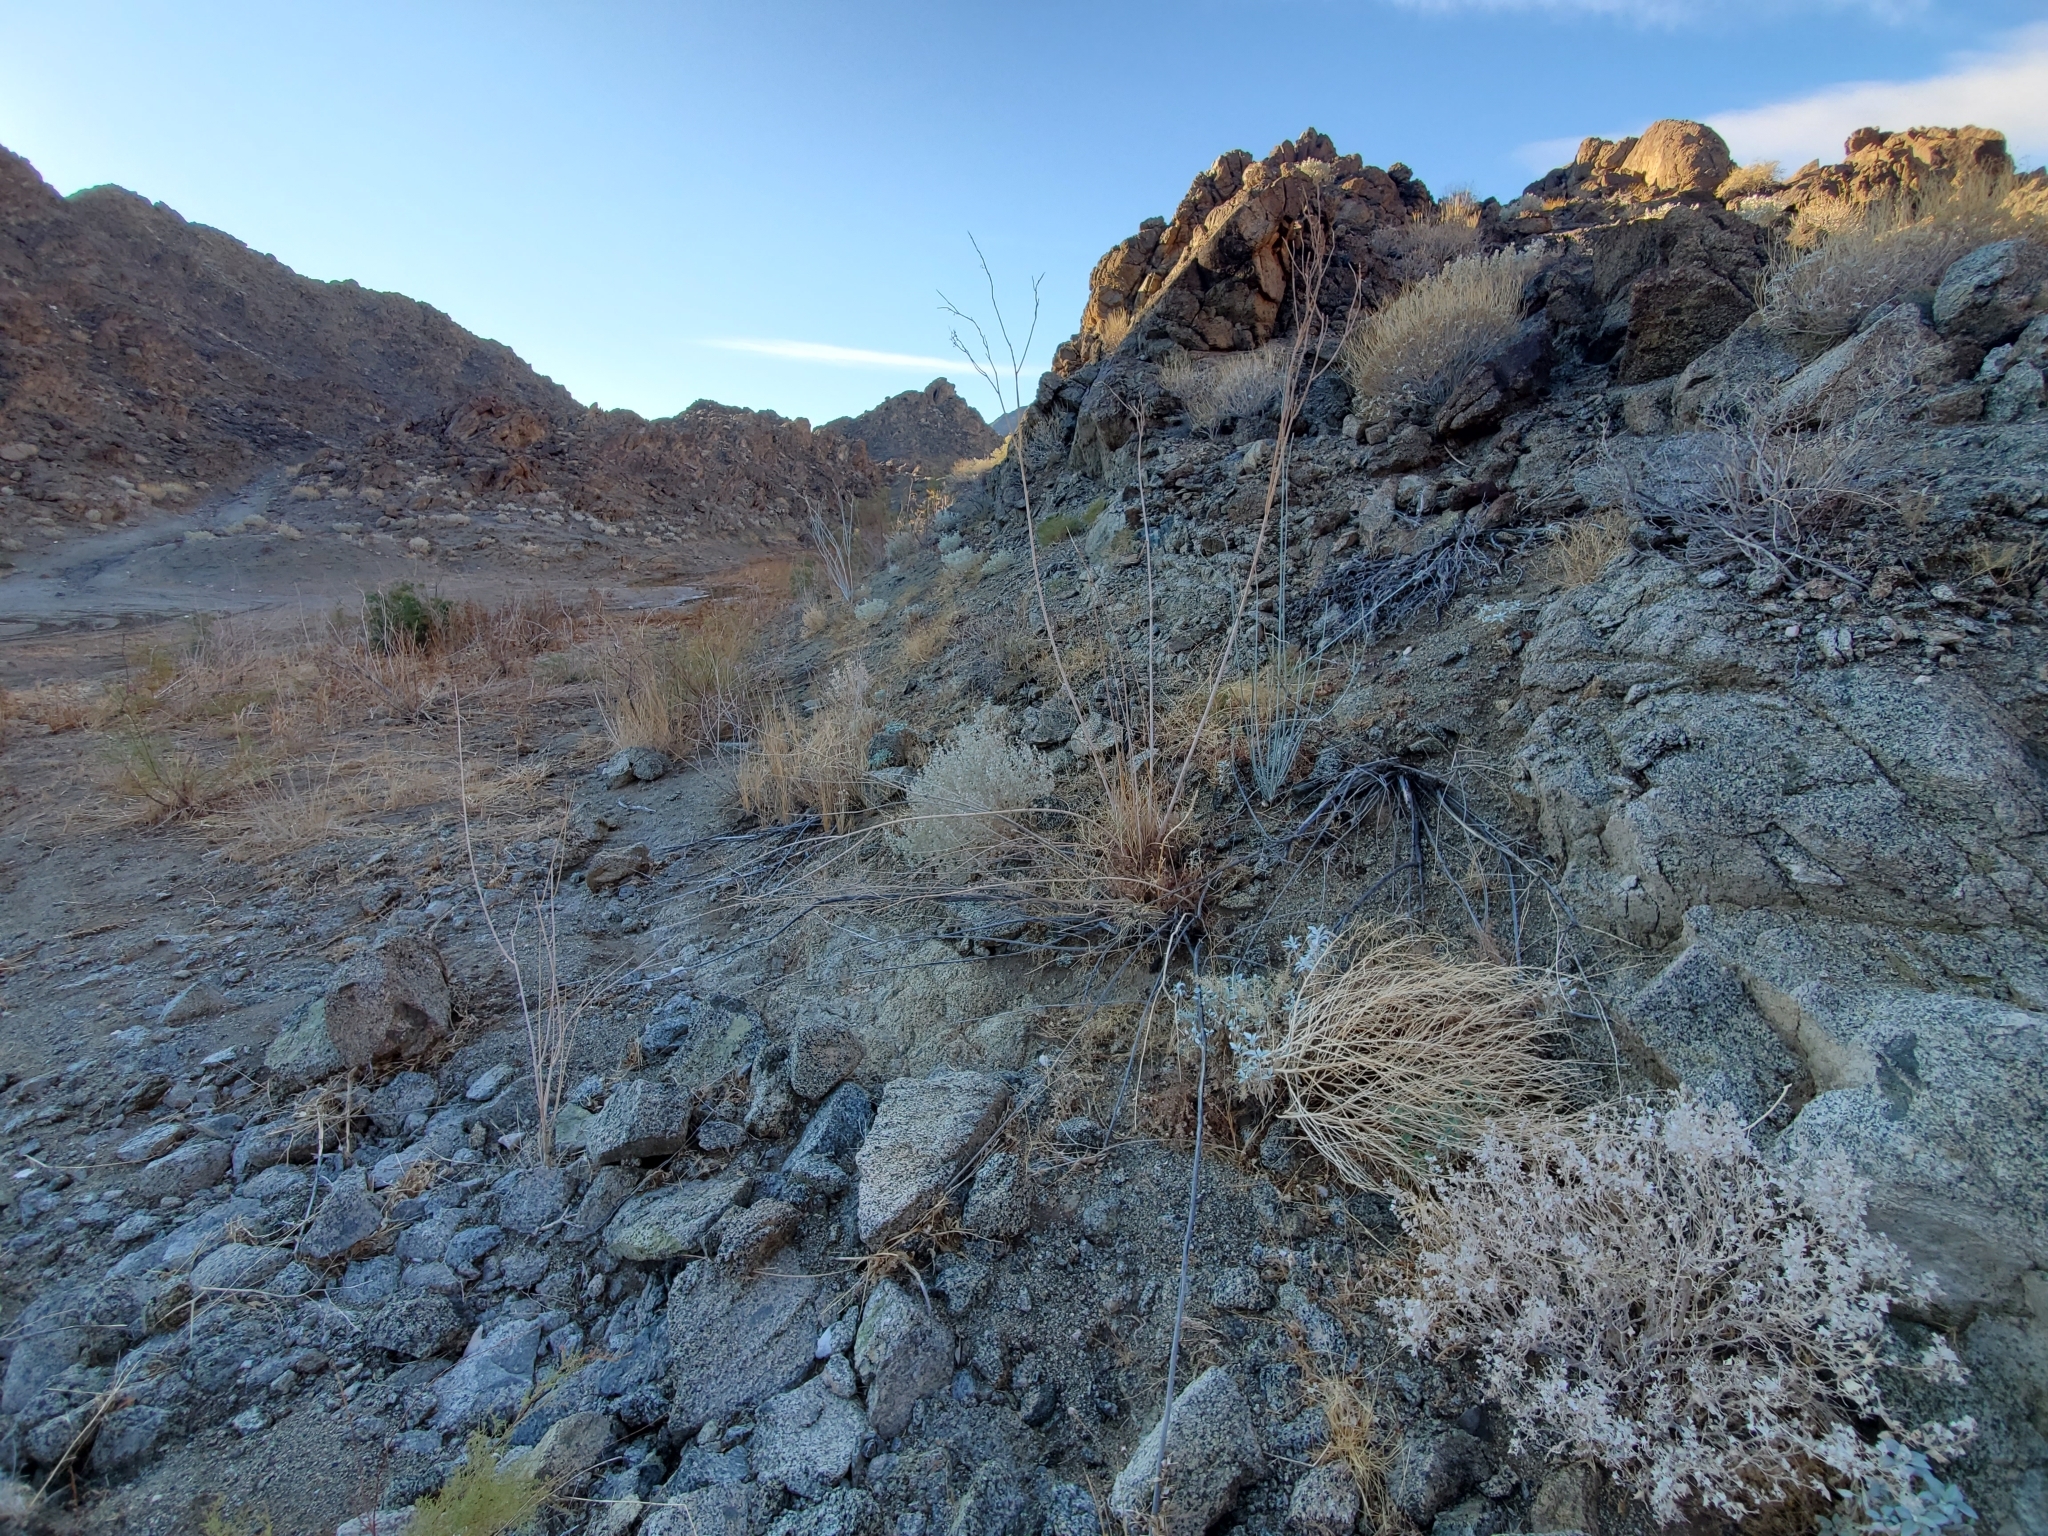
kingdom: Plantae
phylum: Tracheophyta
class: Magnoliopsida
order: Gentianales
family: Apocynaceae
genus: Asclepias
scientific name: Asclepias albicans
